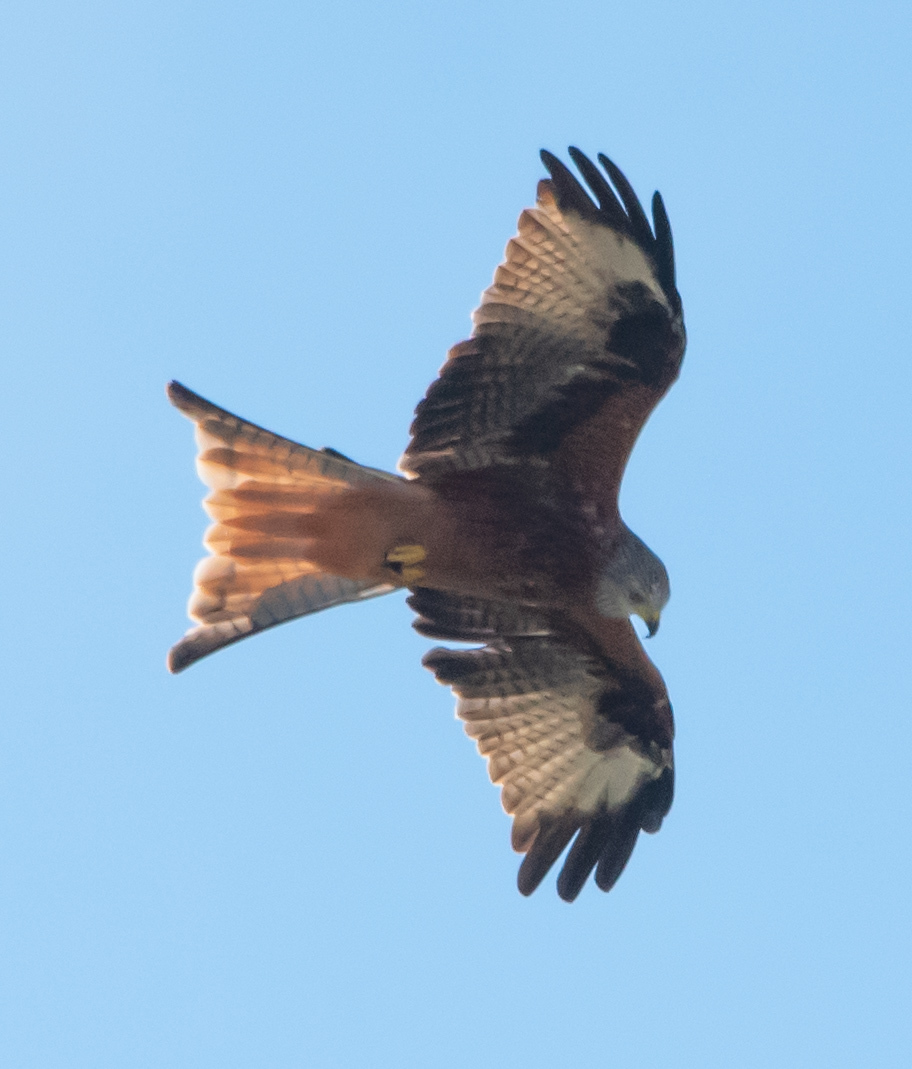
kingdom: Animalia
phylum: Chordata
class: Aves
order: Accipitriformes
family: Accipitridae
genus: Milvus
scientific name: Milvus milvus
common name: Red kite
